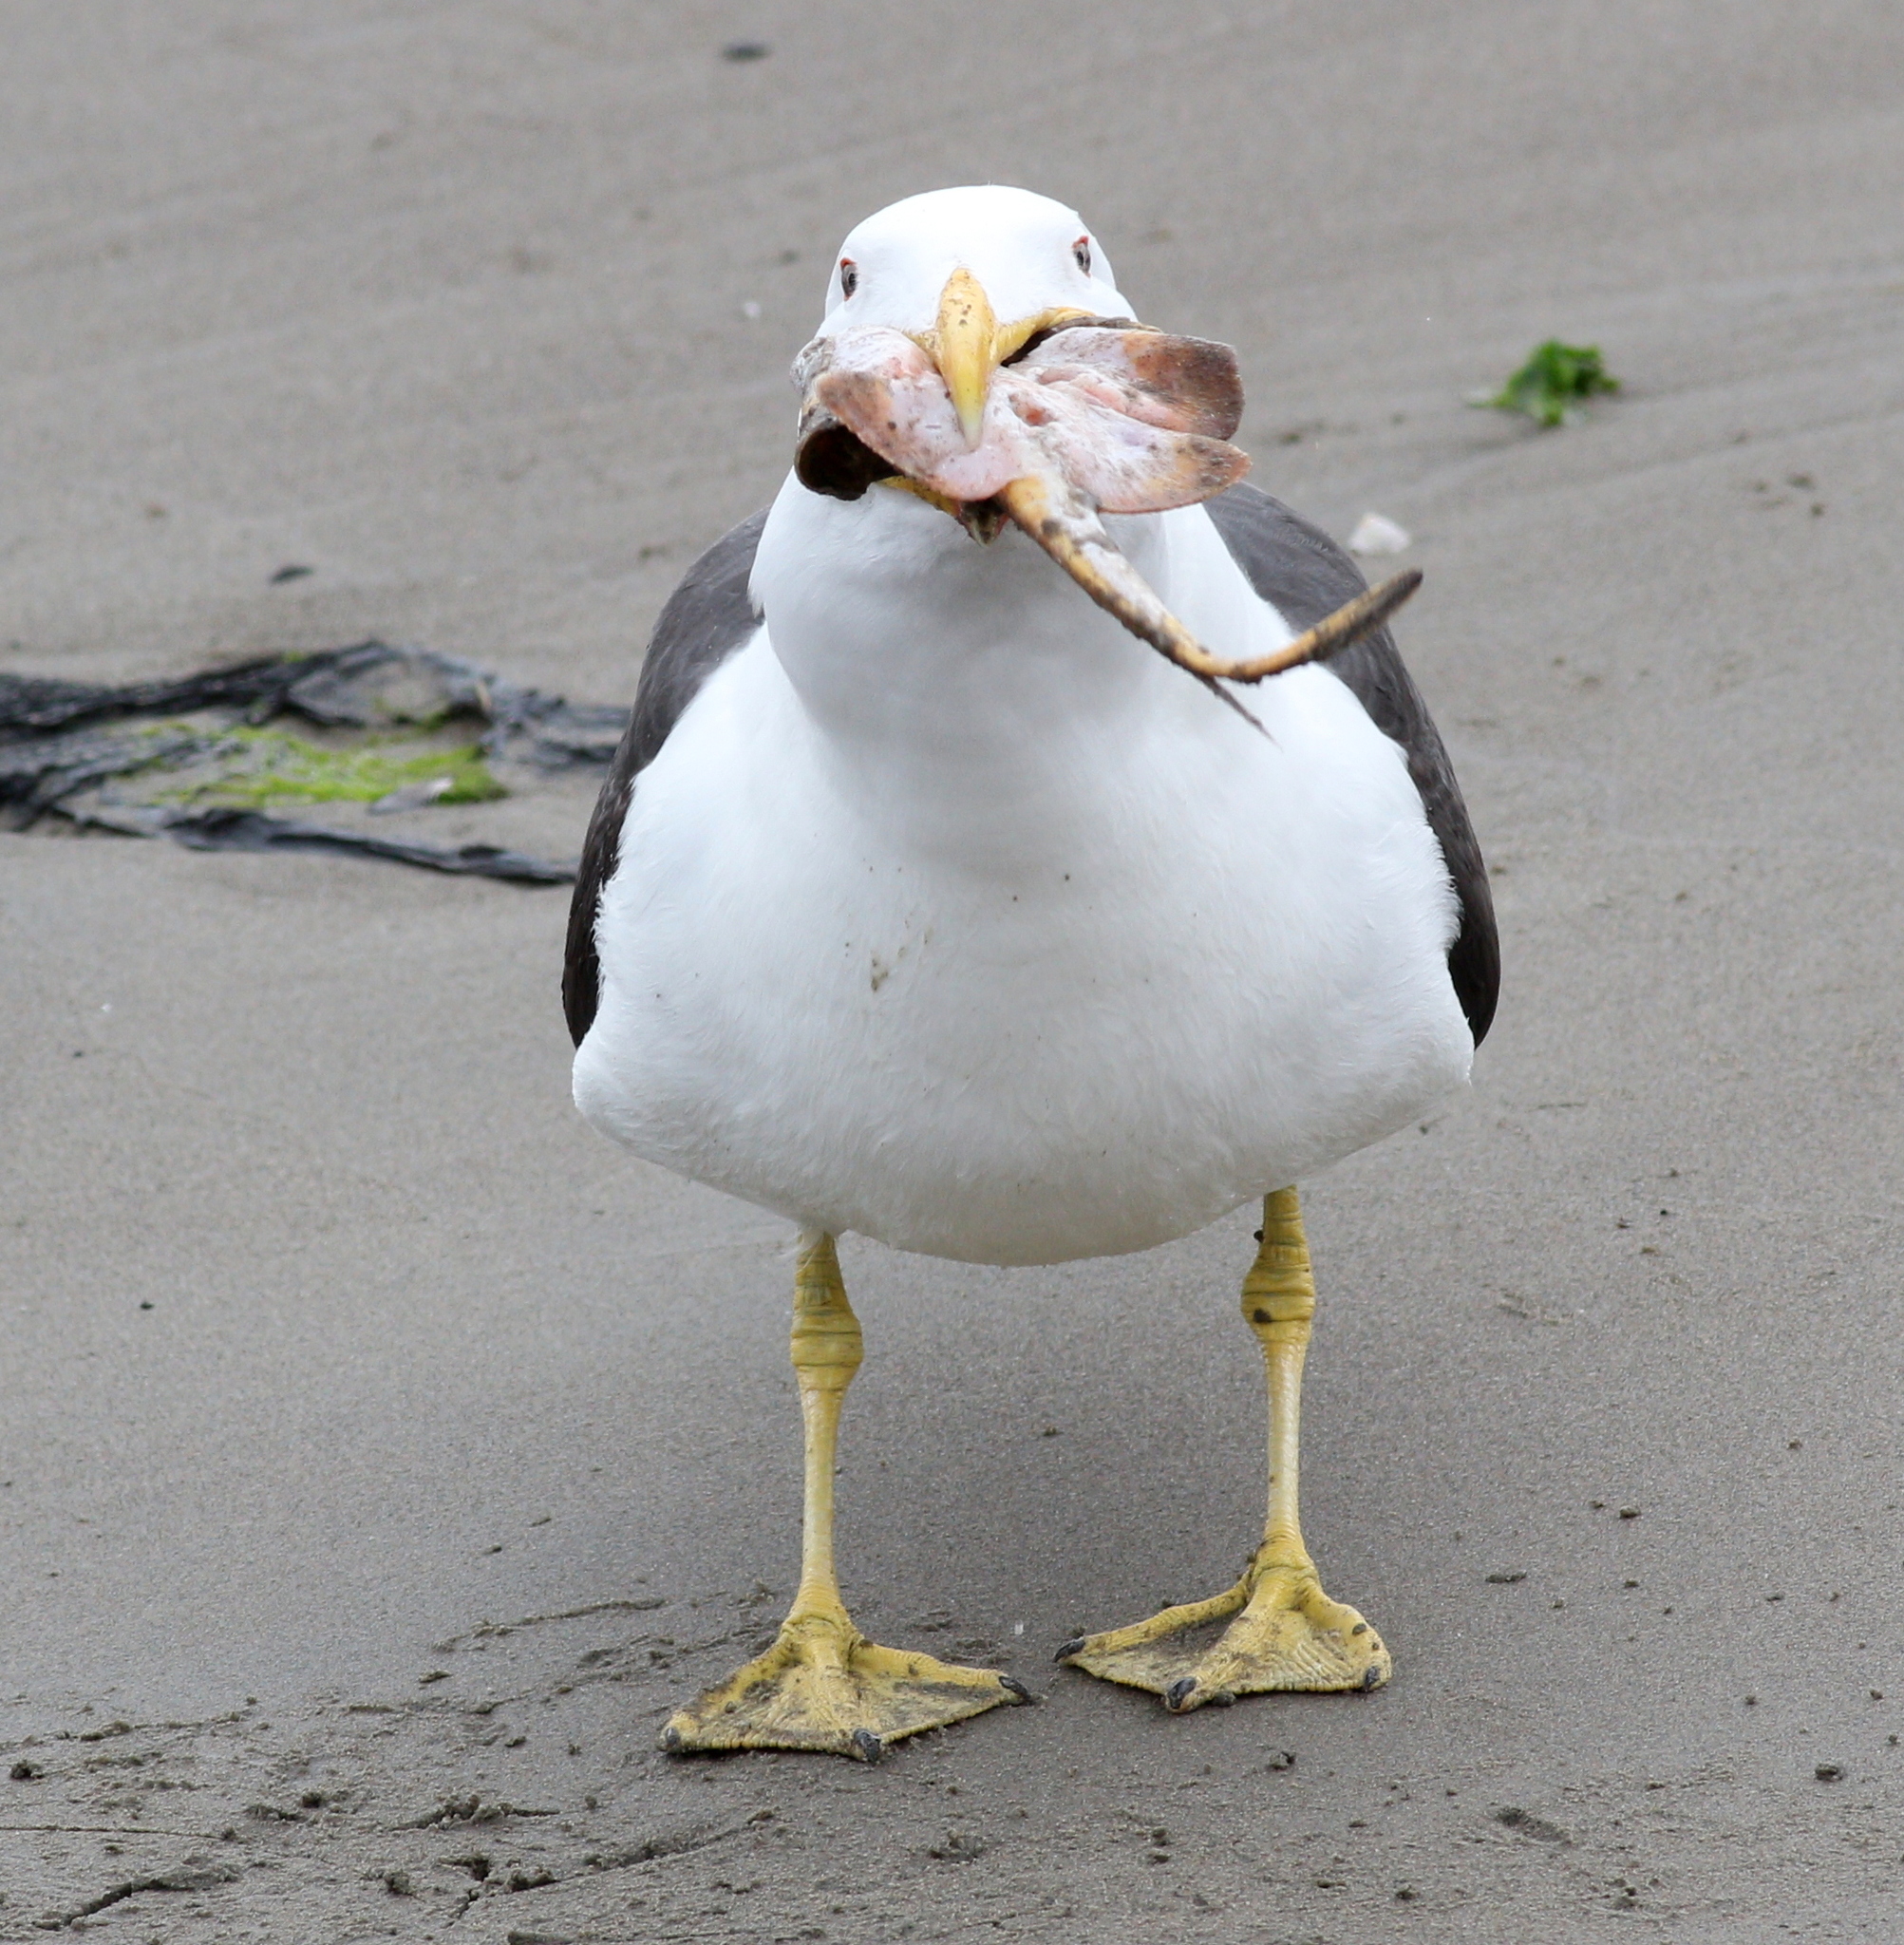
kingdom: Animalia
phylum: Chordata
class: Aves
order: Charadriiformes
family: Laridae
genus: Larus
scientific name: Larus dominicanus
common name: Kelp gull
